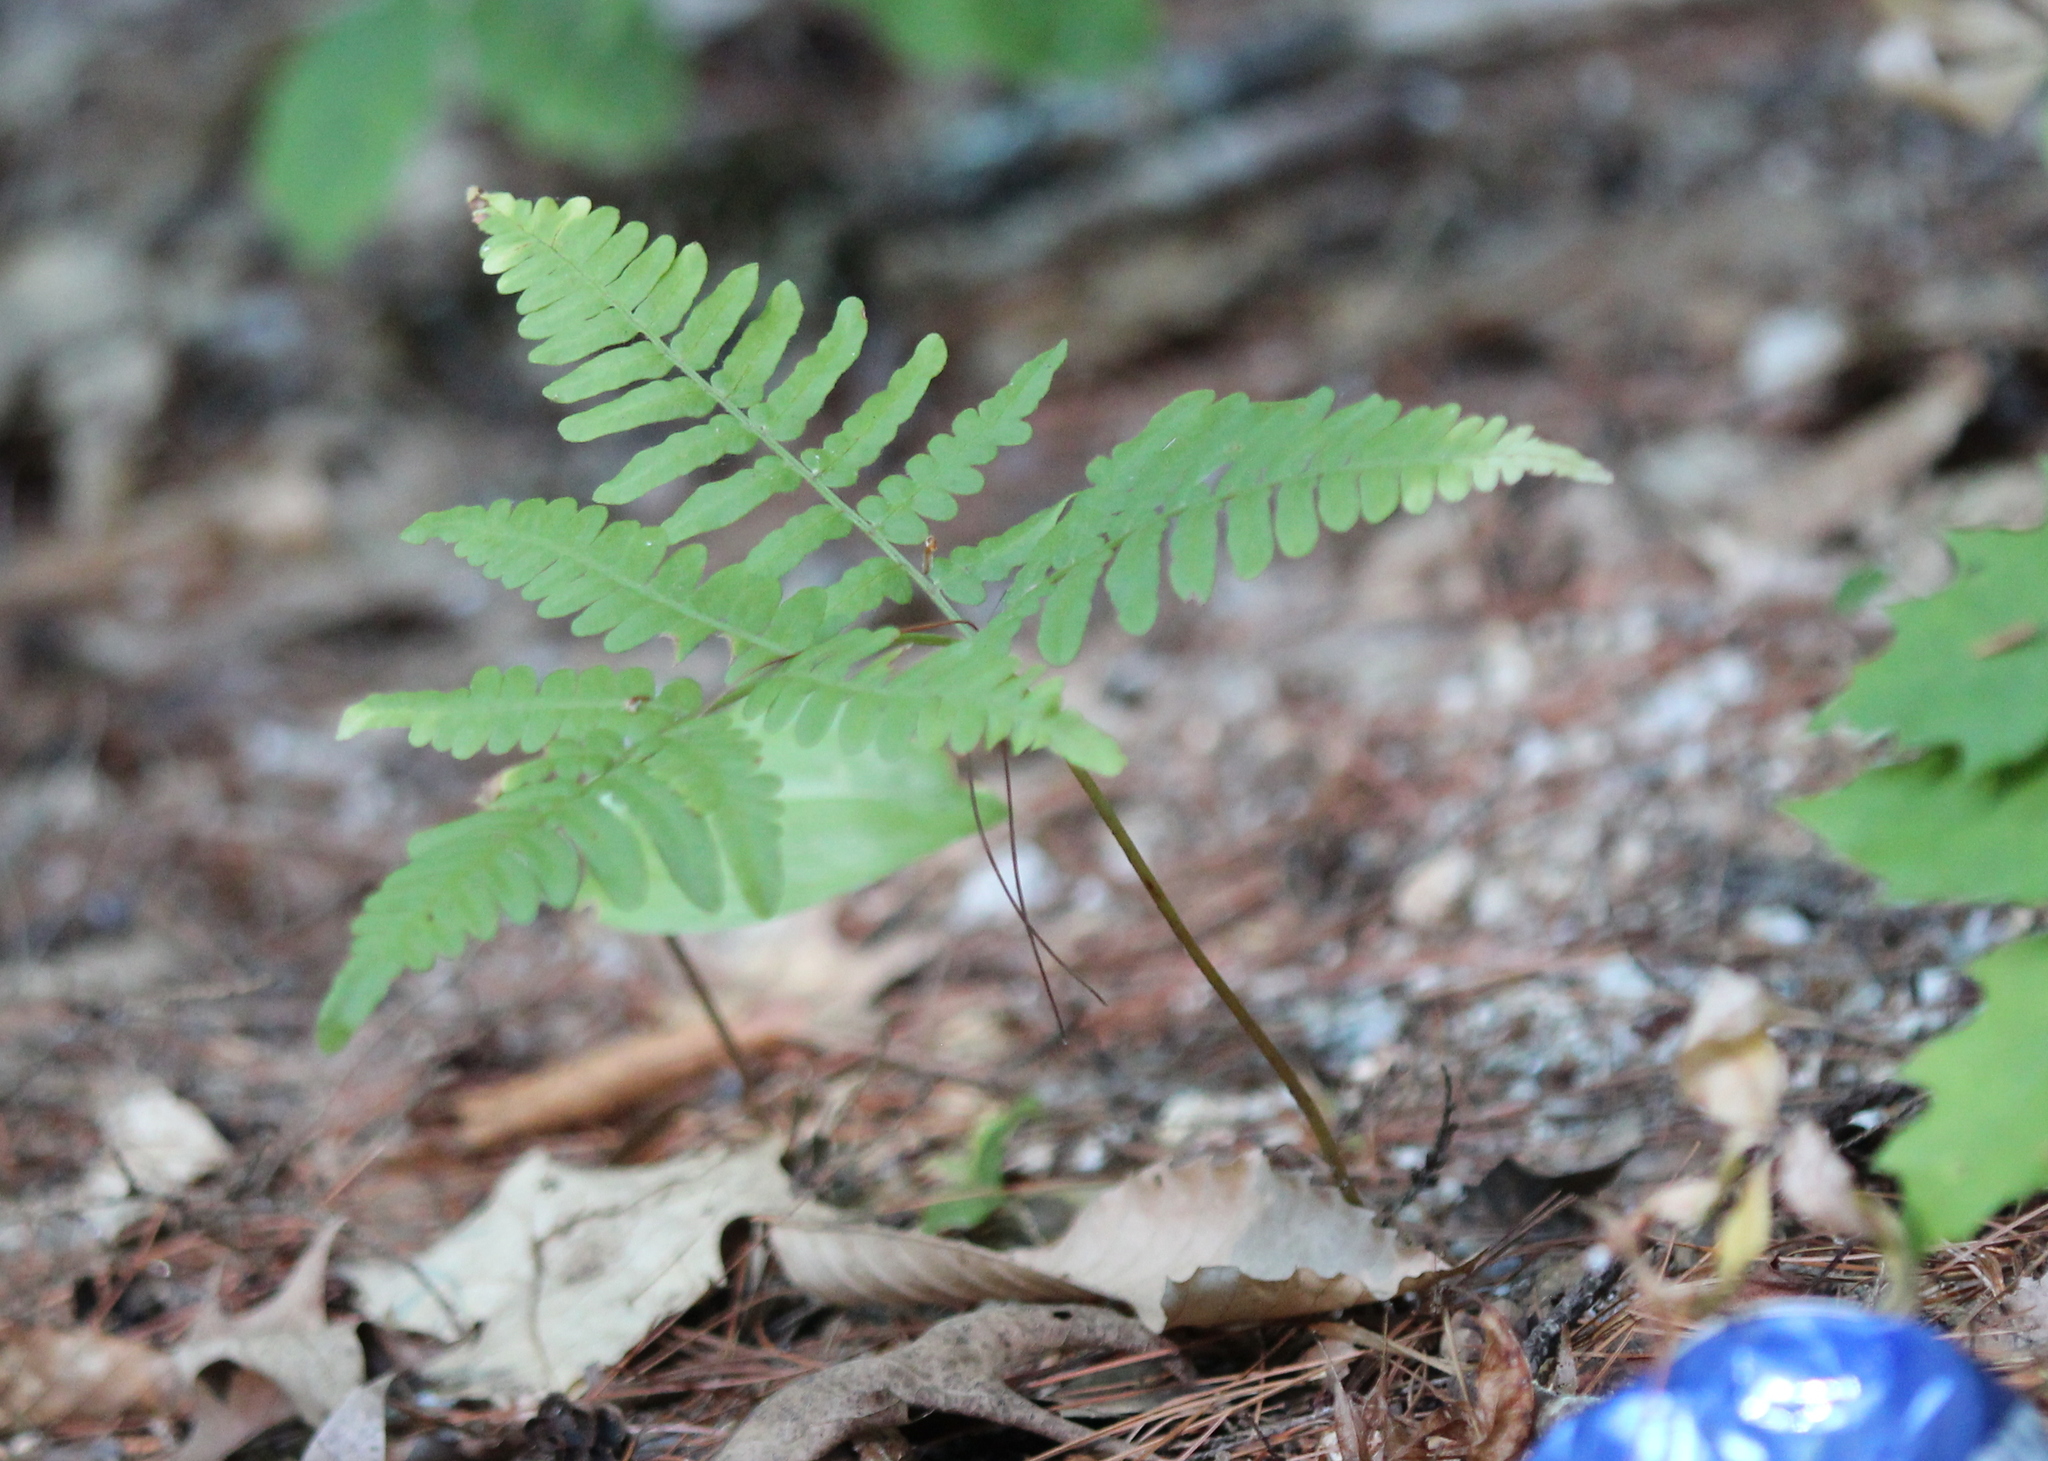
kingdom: Plantae
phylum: Tracheophyta
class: Polypodiopsida
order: Polypodiales
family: Dennstaedtiaceae
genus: Pteridium
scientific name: Pteridium aquilinum
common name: Bracken
